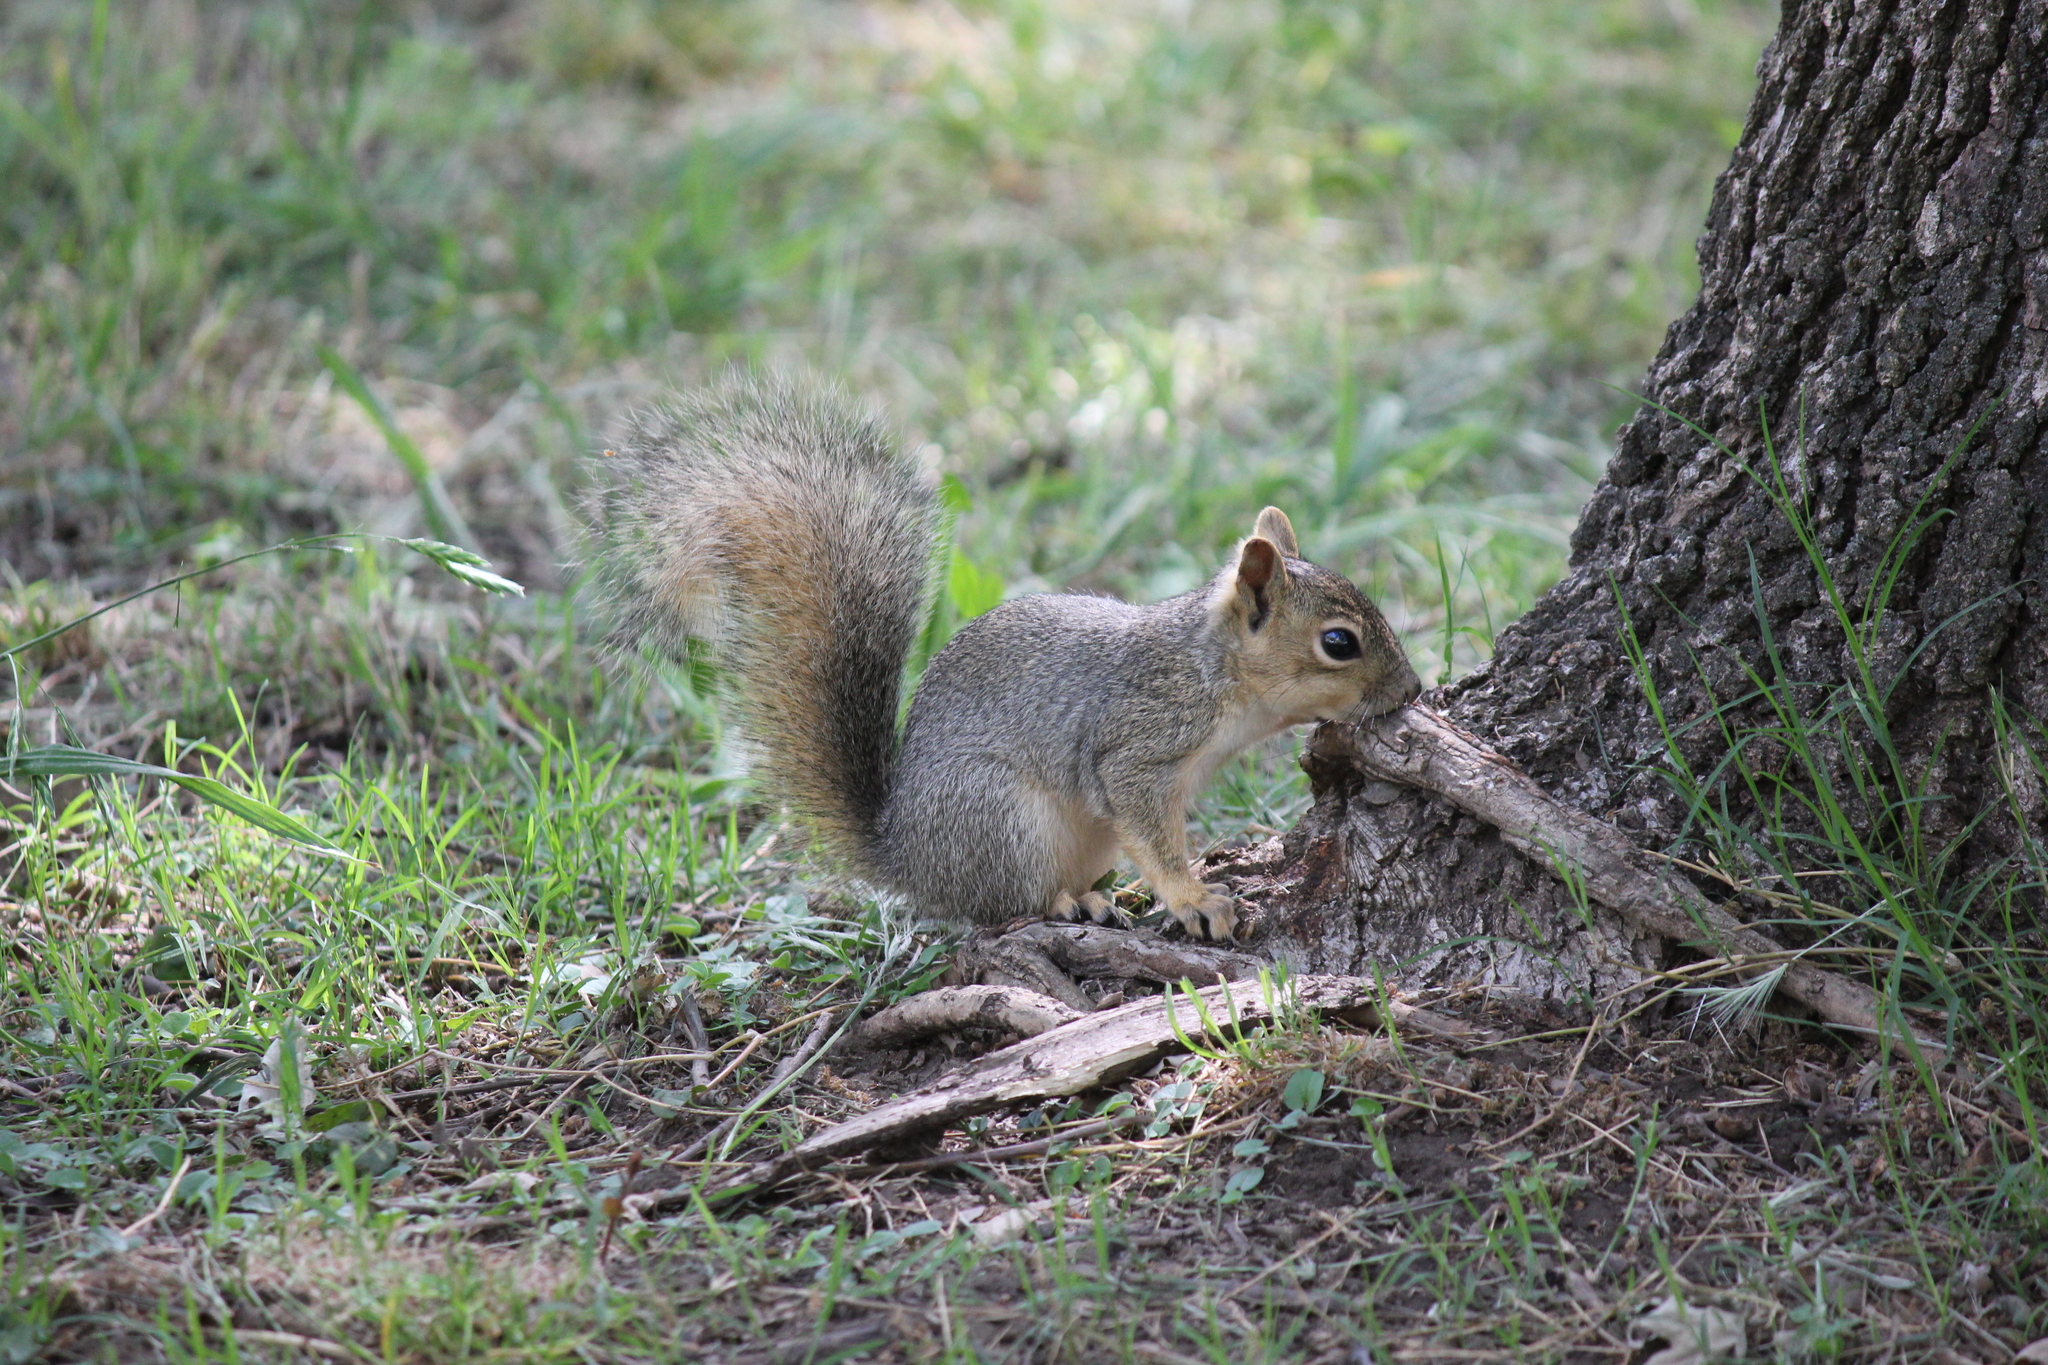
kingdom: Animalia
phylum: Chordata
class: Mammalia
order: Rodentia
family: Sciuridae
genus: Sciurus
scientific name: Sciurus niger
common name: Fox squirrel
